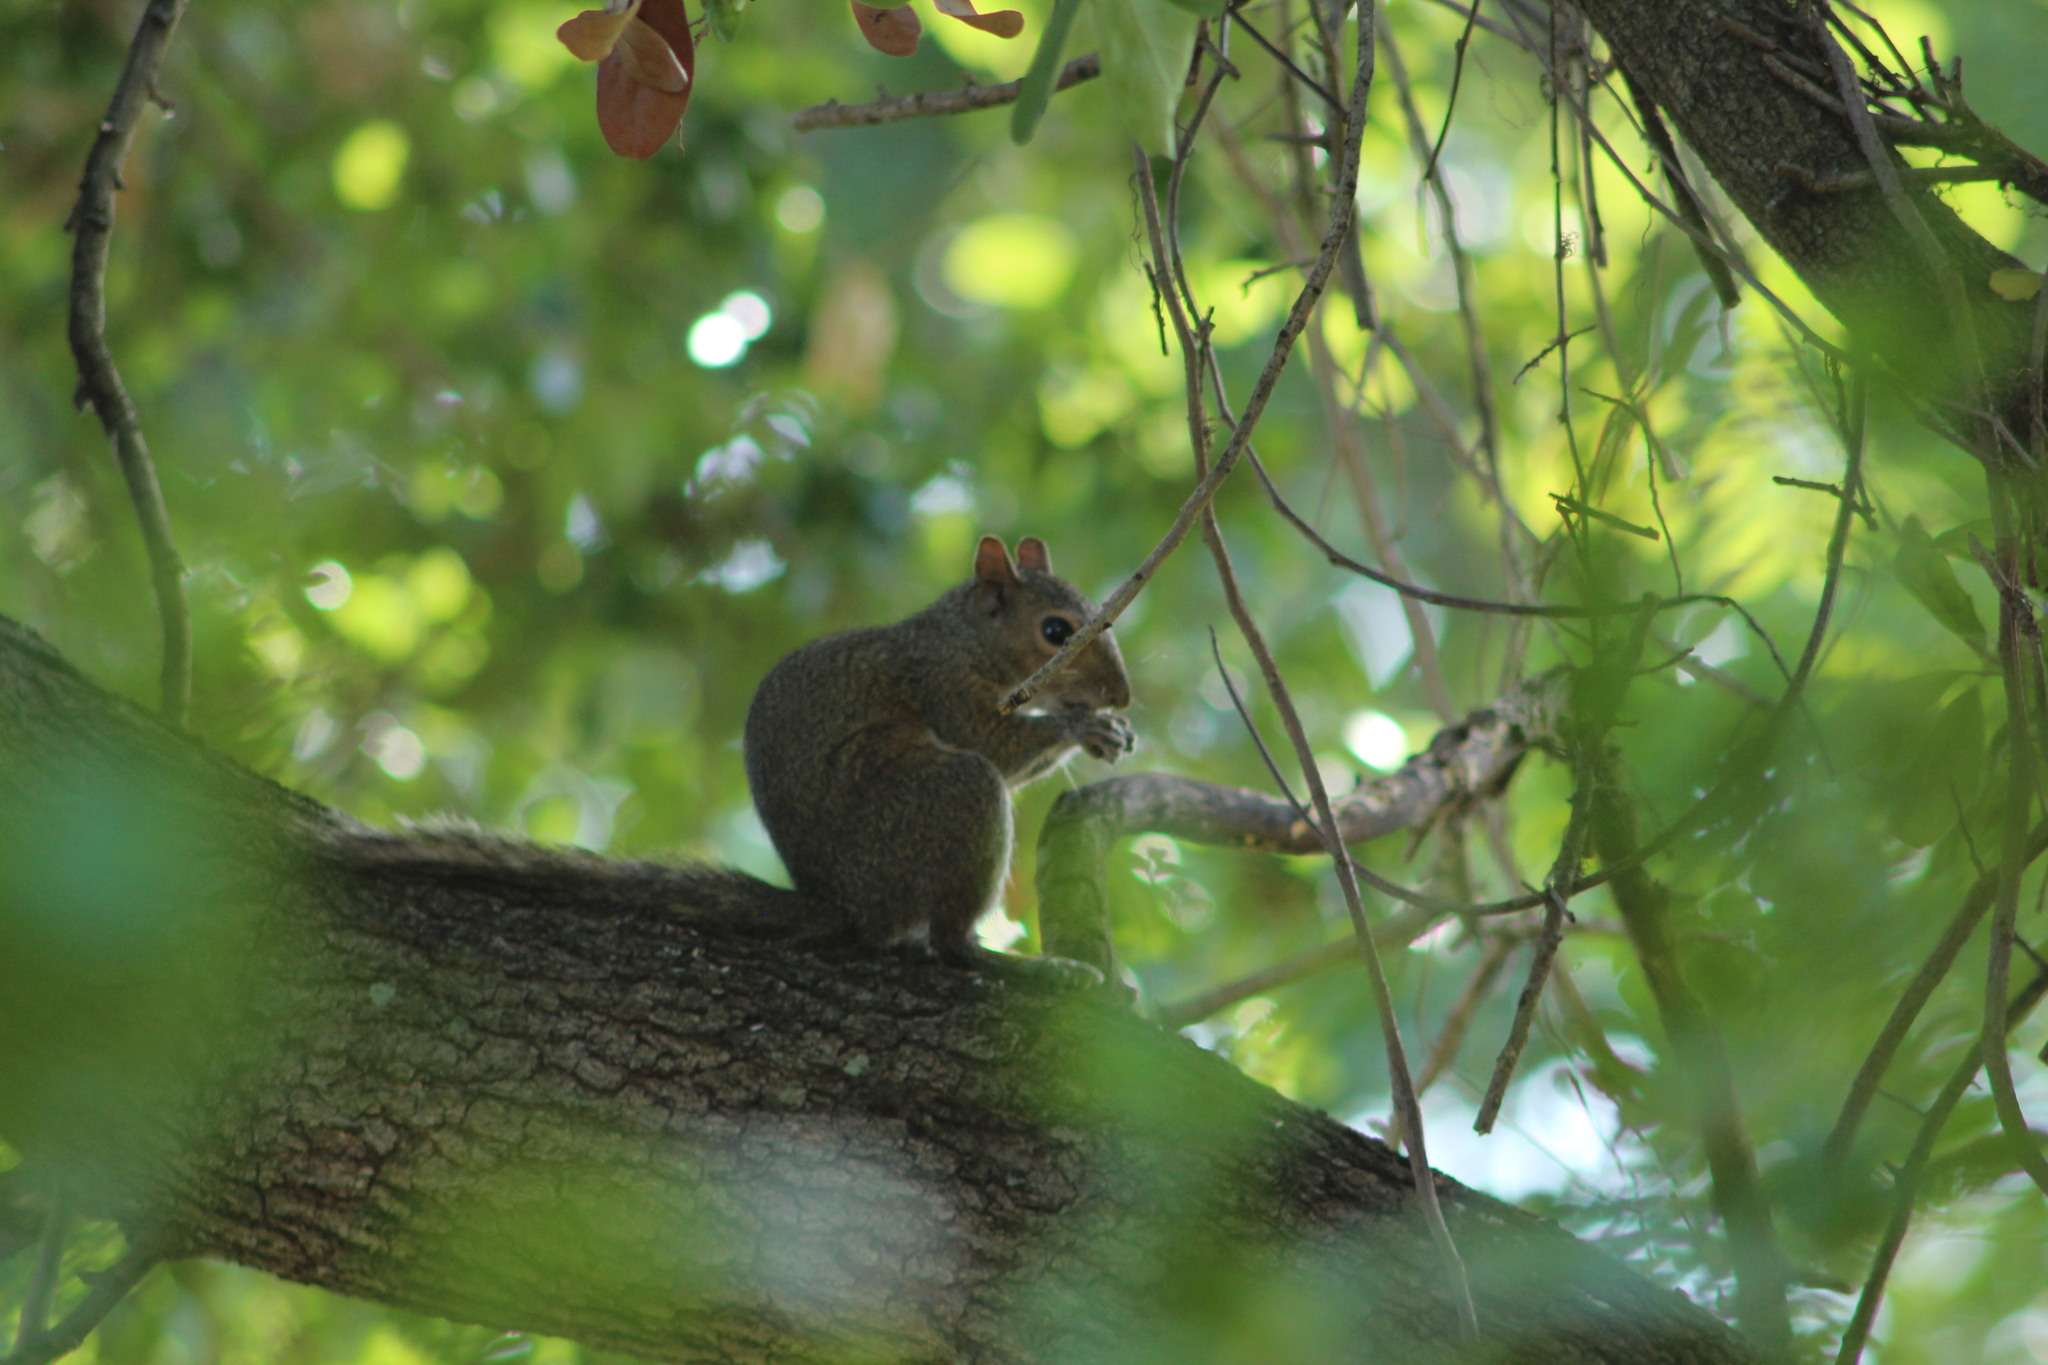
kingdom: Animalia
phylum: Chordata
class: Mammalia
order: Rodentia
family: Sciuridae
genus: Sciurus
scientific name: Sciurus carolinensis
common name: Eastern gray squirrel
